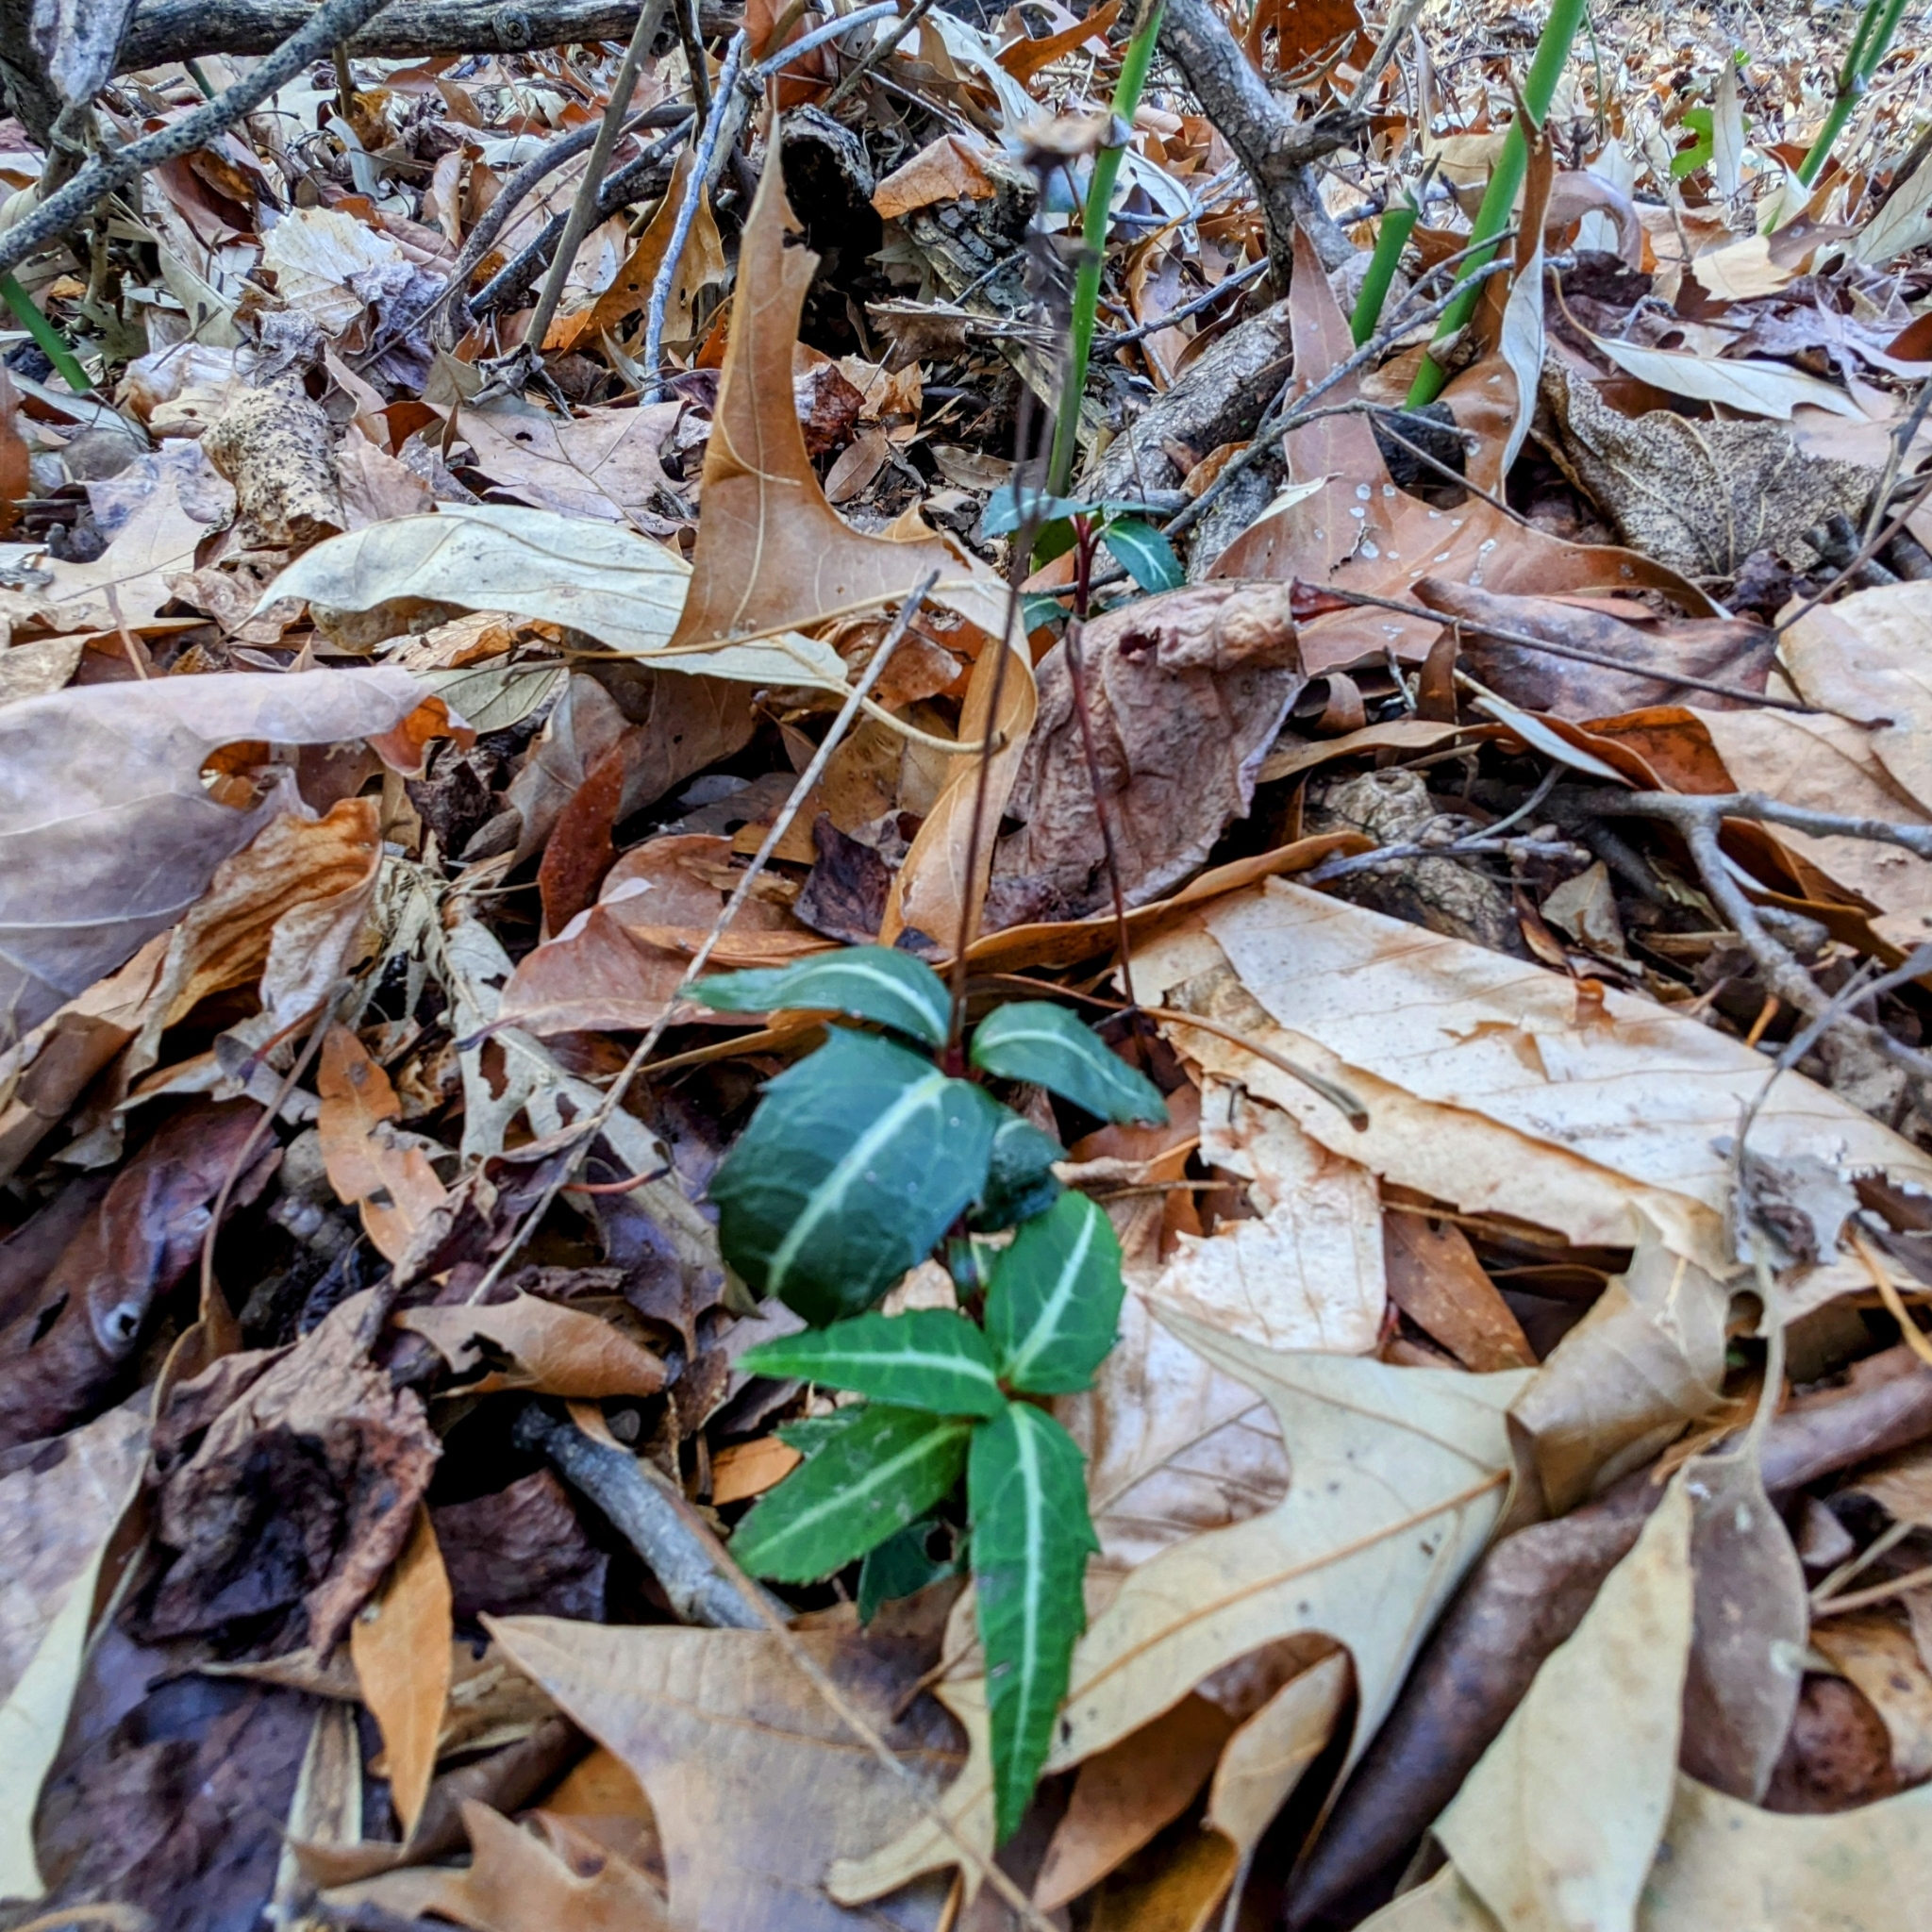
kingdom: Plantae
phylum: Tracheophyta
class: Magnoliopsida
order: Ericales
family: Ericaceae
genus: Chimaphila
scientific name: Chimaphila maculata
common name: Spotted pipsissewa
